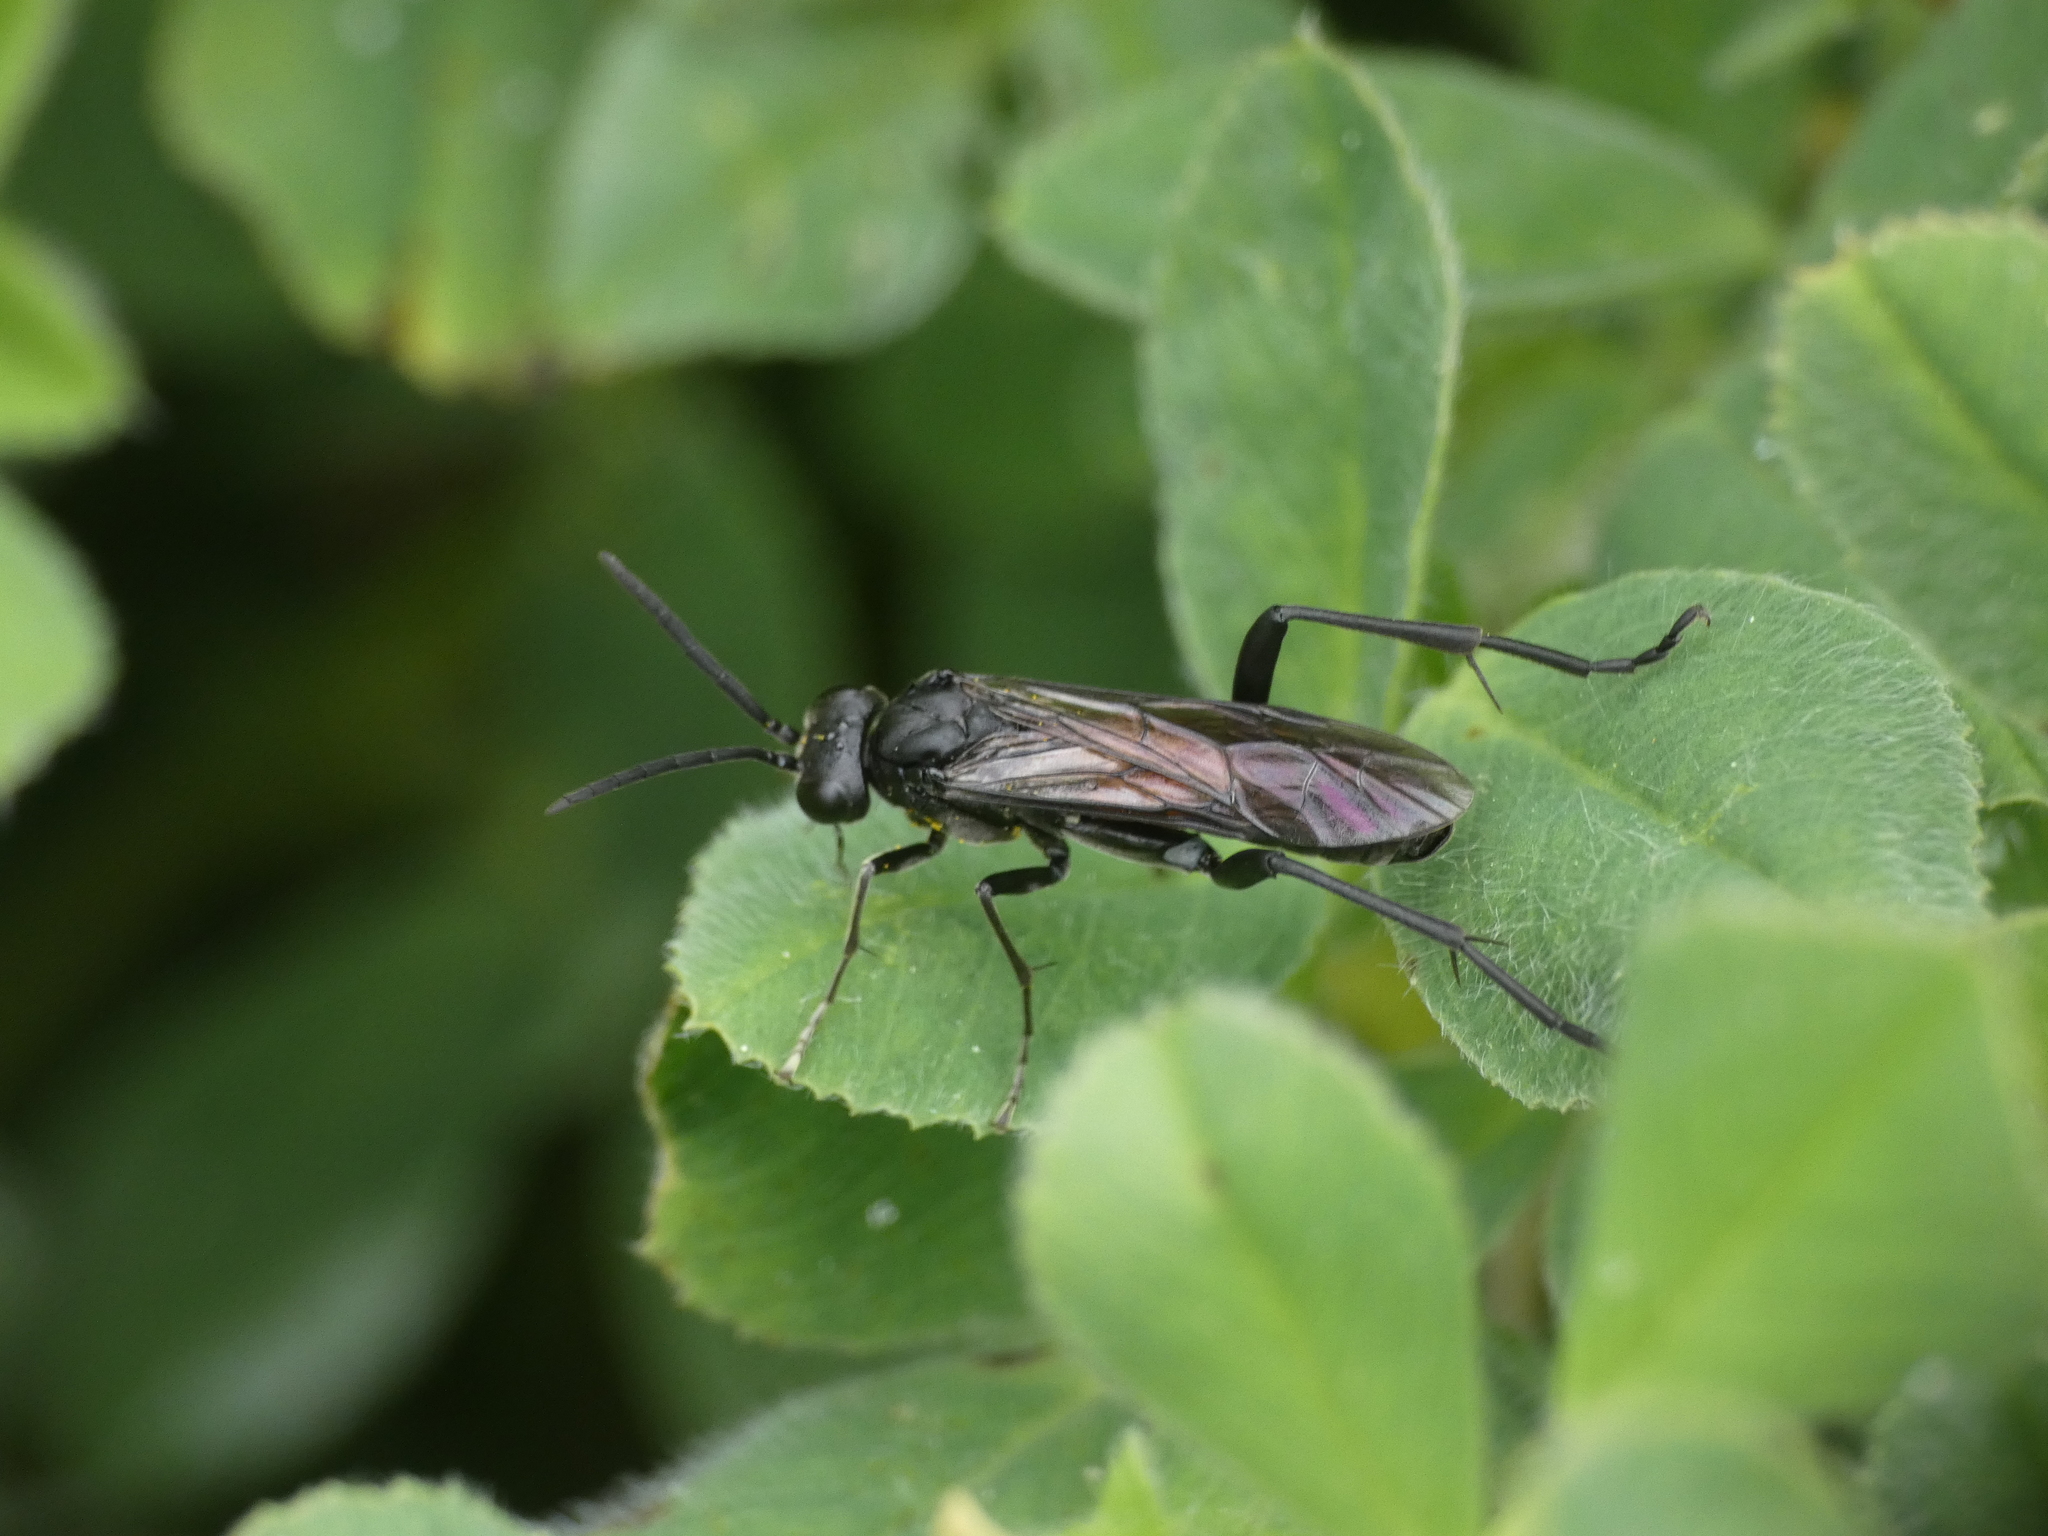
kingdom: Animalia
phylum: Arthropoda
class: Insecta
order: Hymenoptera
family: Tenthredinidae
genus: Macrophya
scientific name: Macrophya annulata
